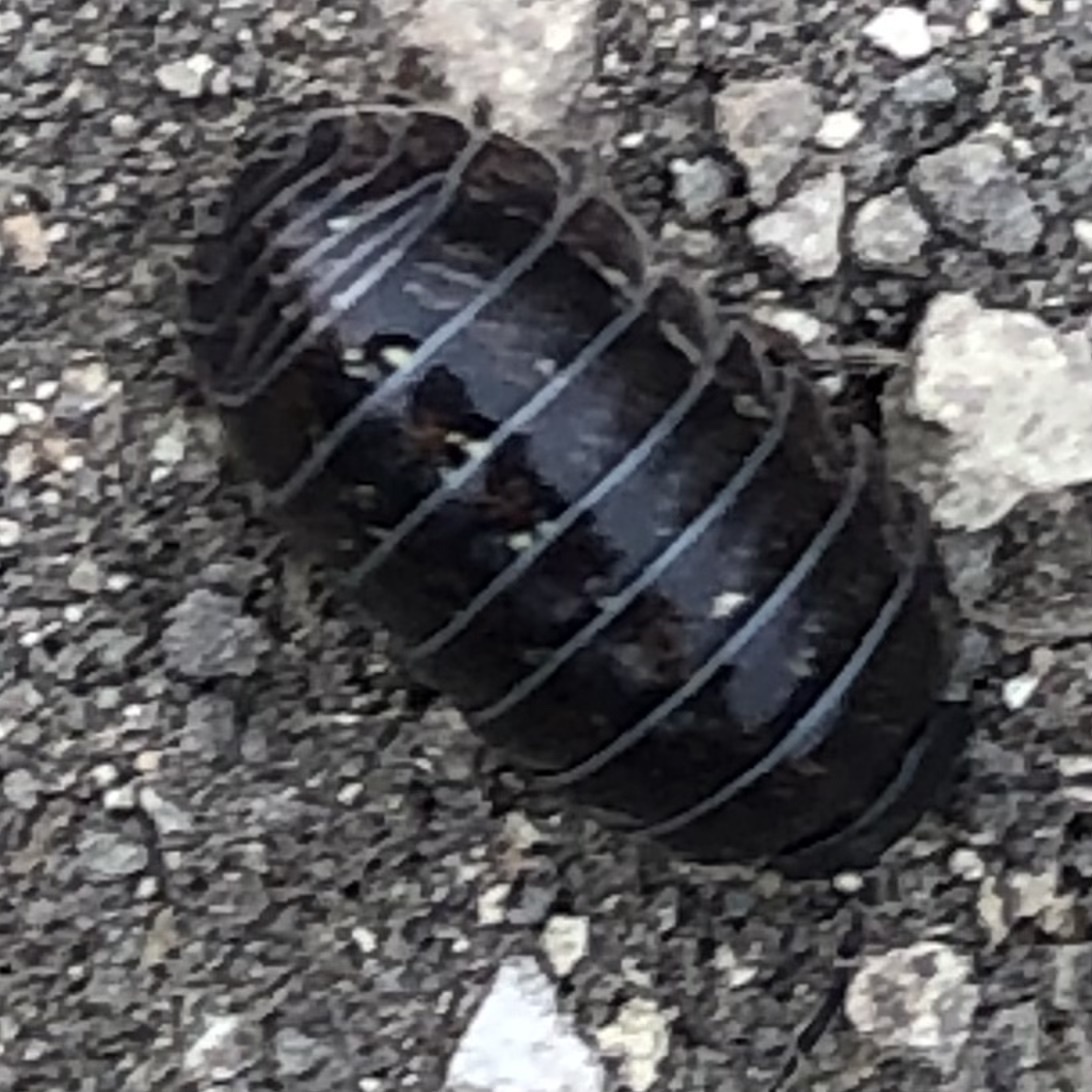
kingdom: Animalia
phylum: Arthropoda
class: Malacostraca
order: Isopoda
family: Armadillidiidae
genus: Armadillidium
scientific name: Armadillidium vulgare
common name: Common pill woodlouse
